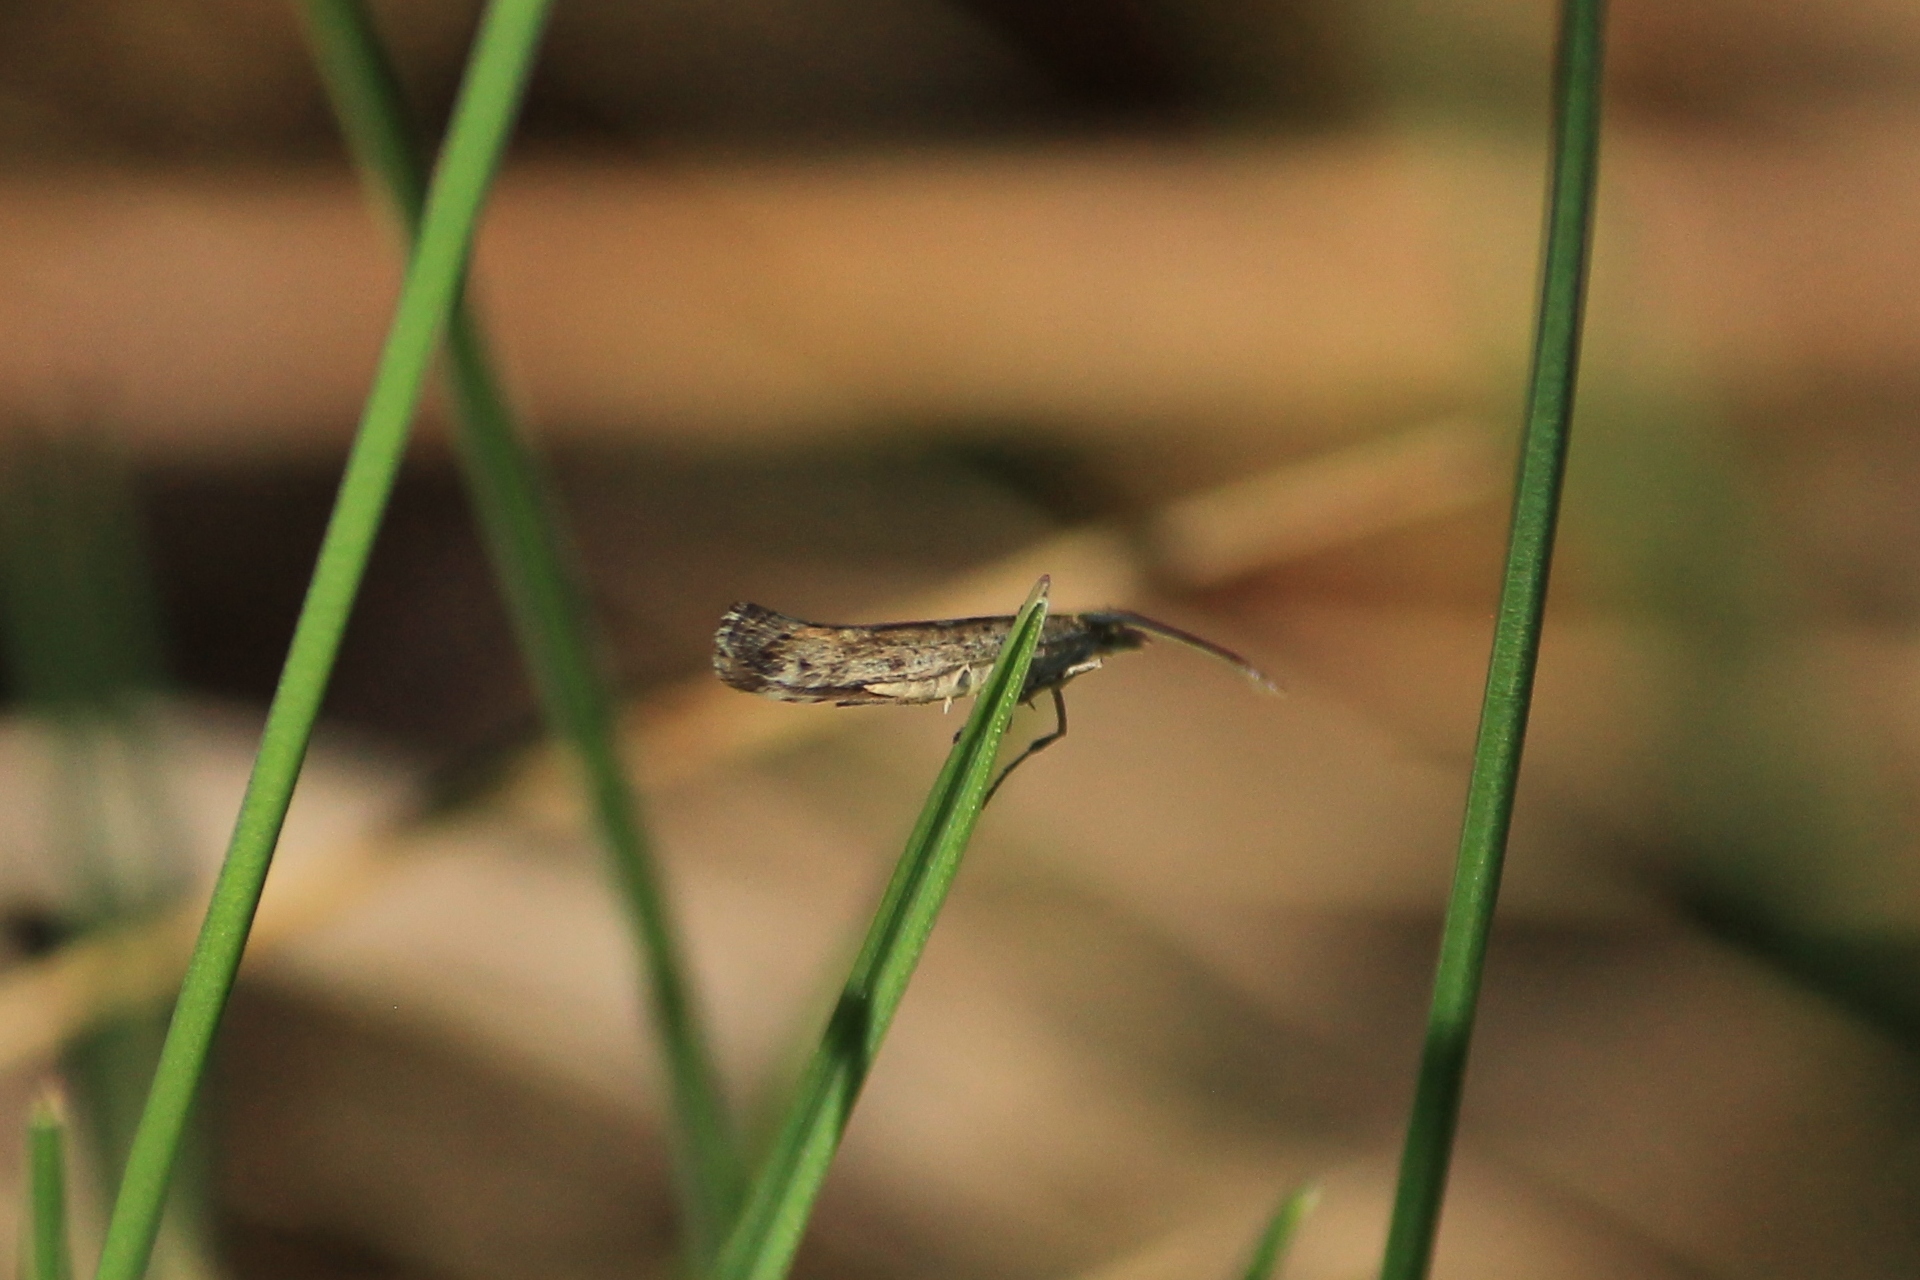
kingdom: Animalia
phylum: Arthropoda
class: Insecta
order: Lepidoptera
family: Plutellidae
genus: Plutella
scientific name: Plutella xylostella
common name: Diamond-back moth
